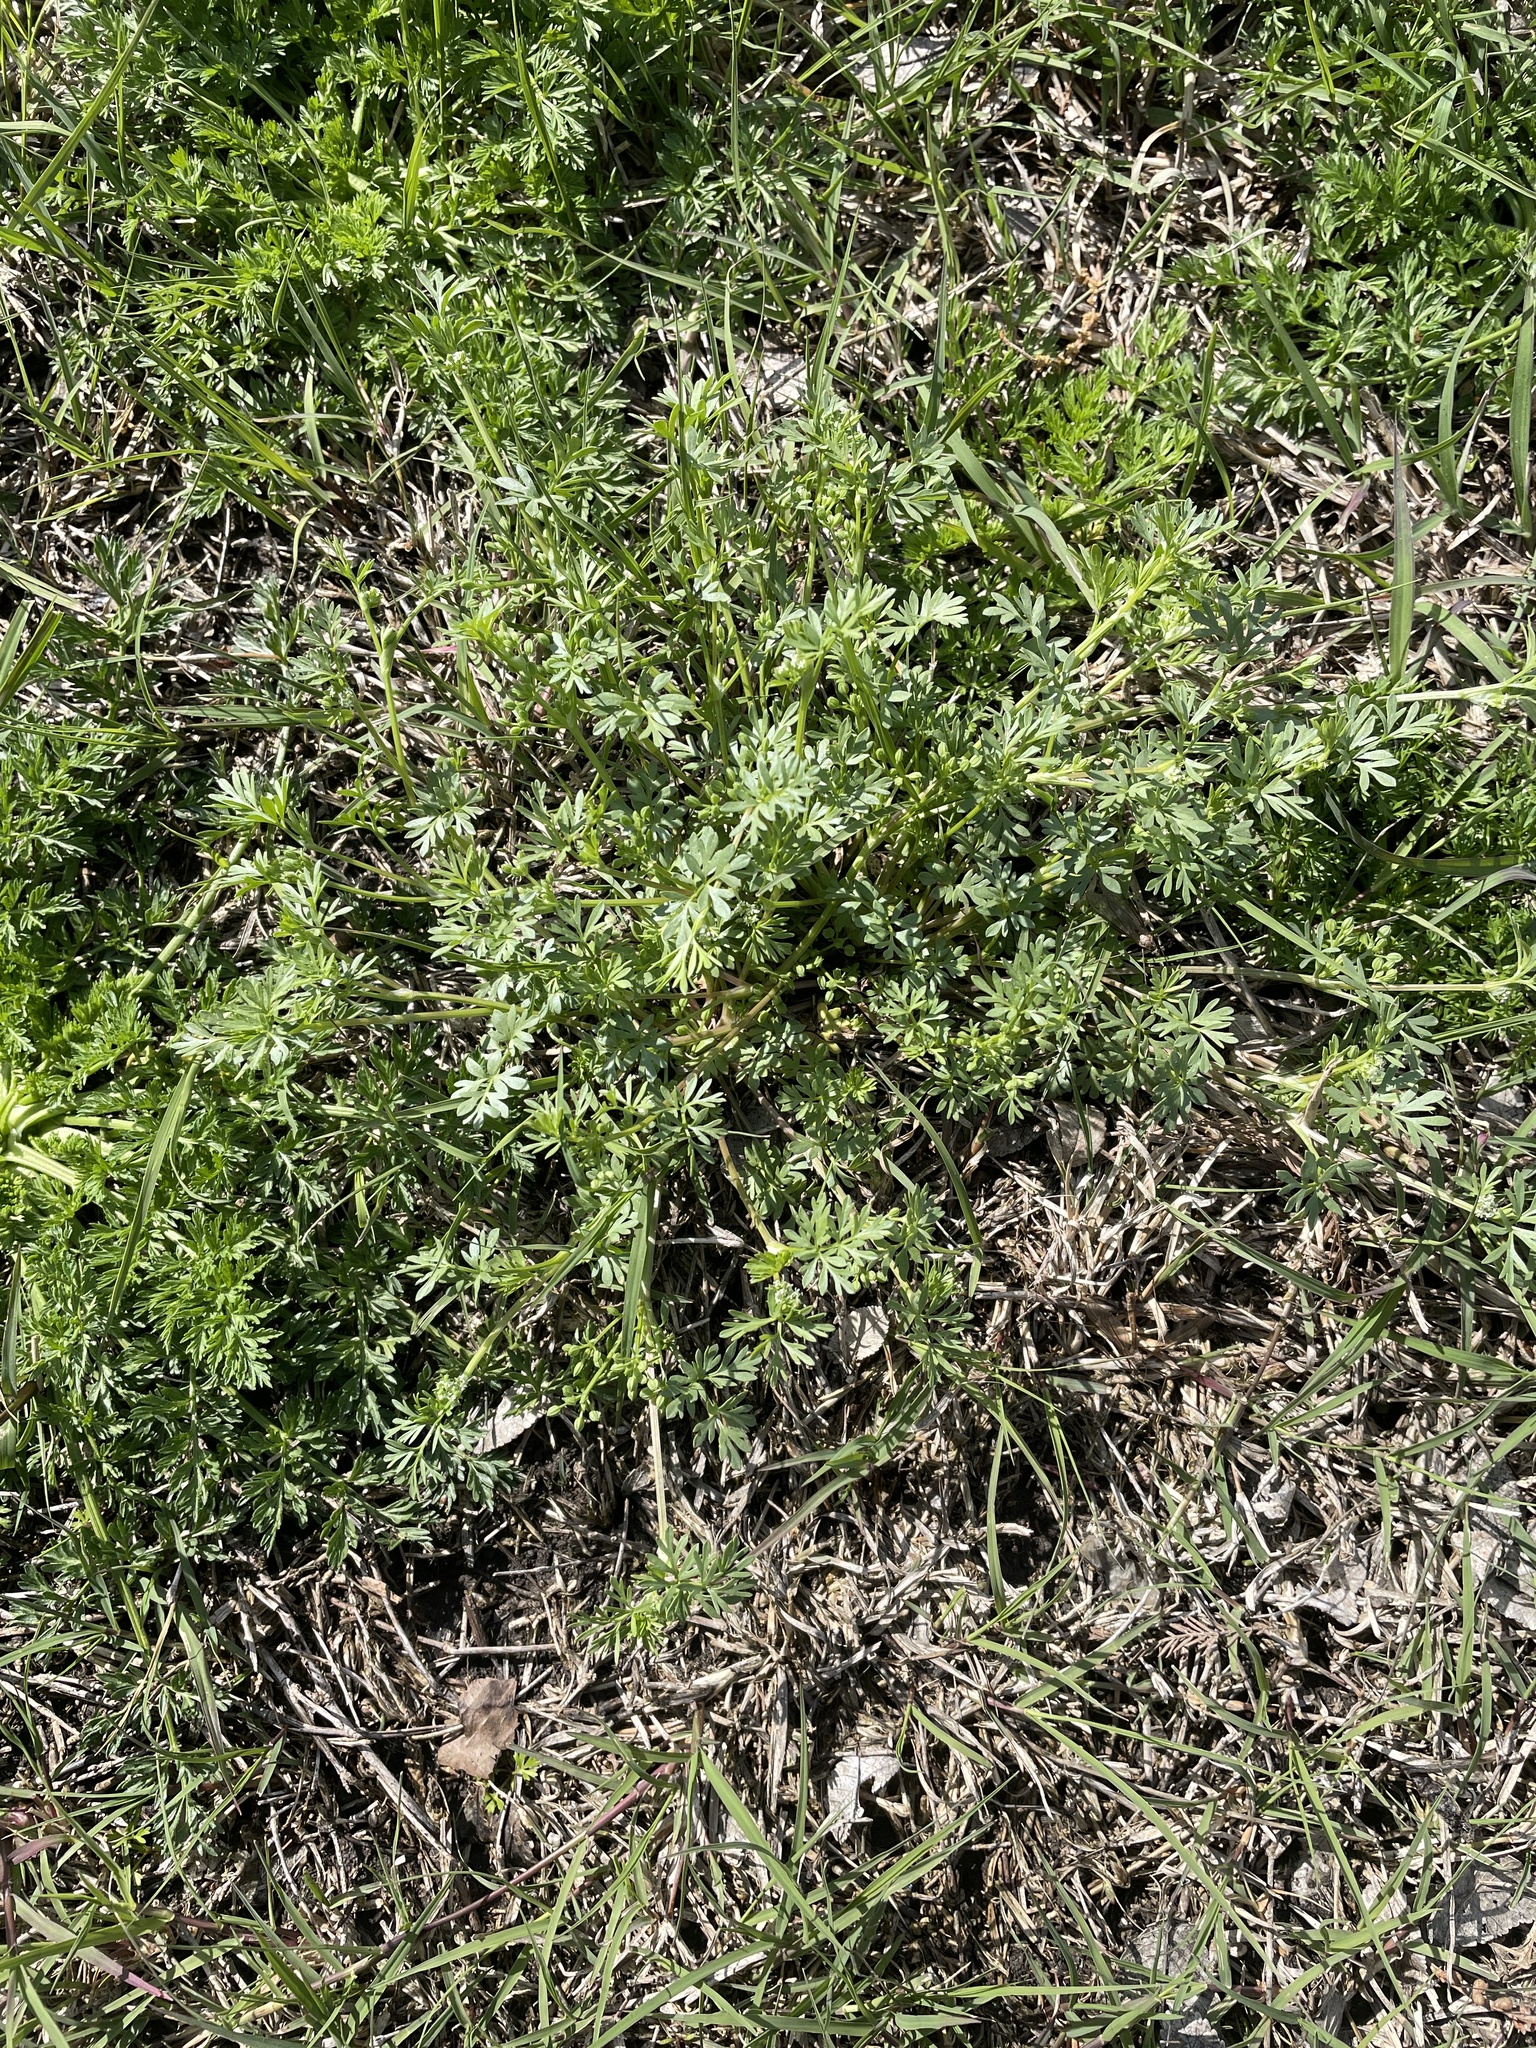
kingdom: Plantae
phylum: Tracheophyta
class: Magnoliopsida
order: Apiales
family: Apiaceae
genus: Ammoselinum
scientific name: Ammoselinum butleri
